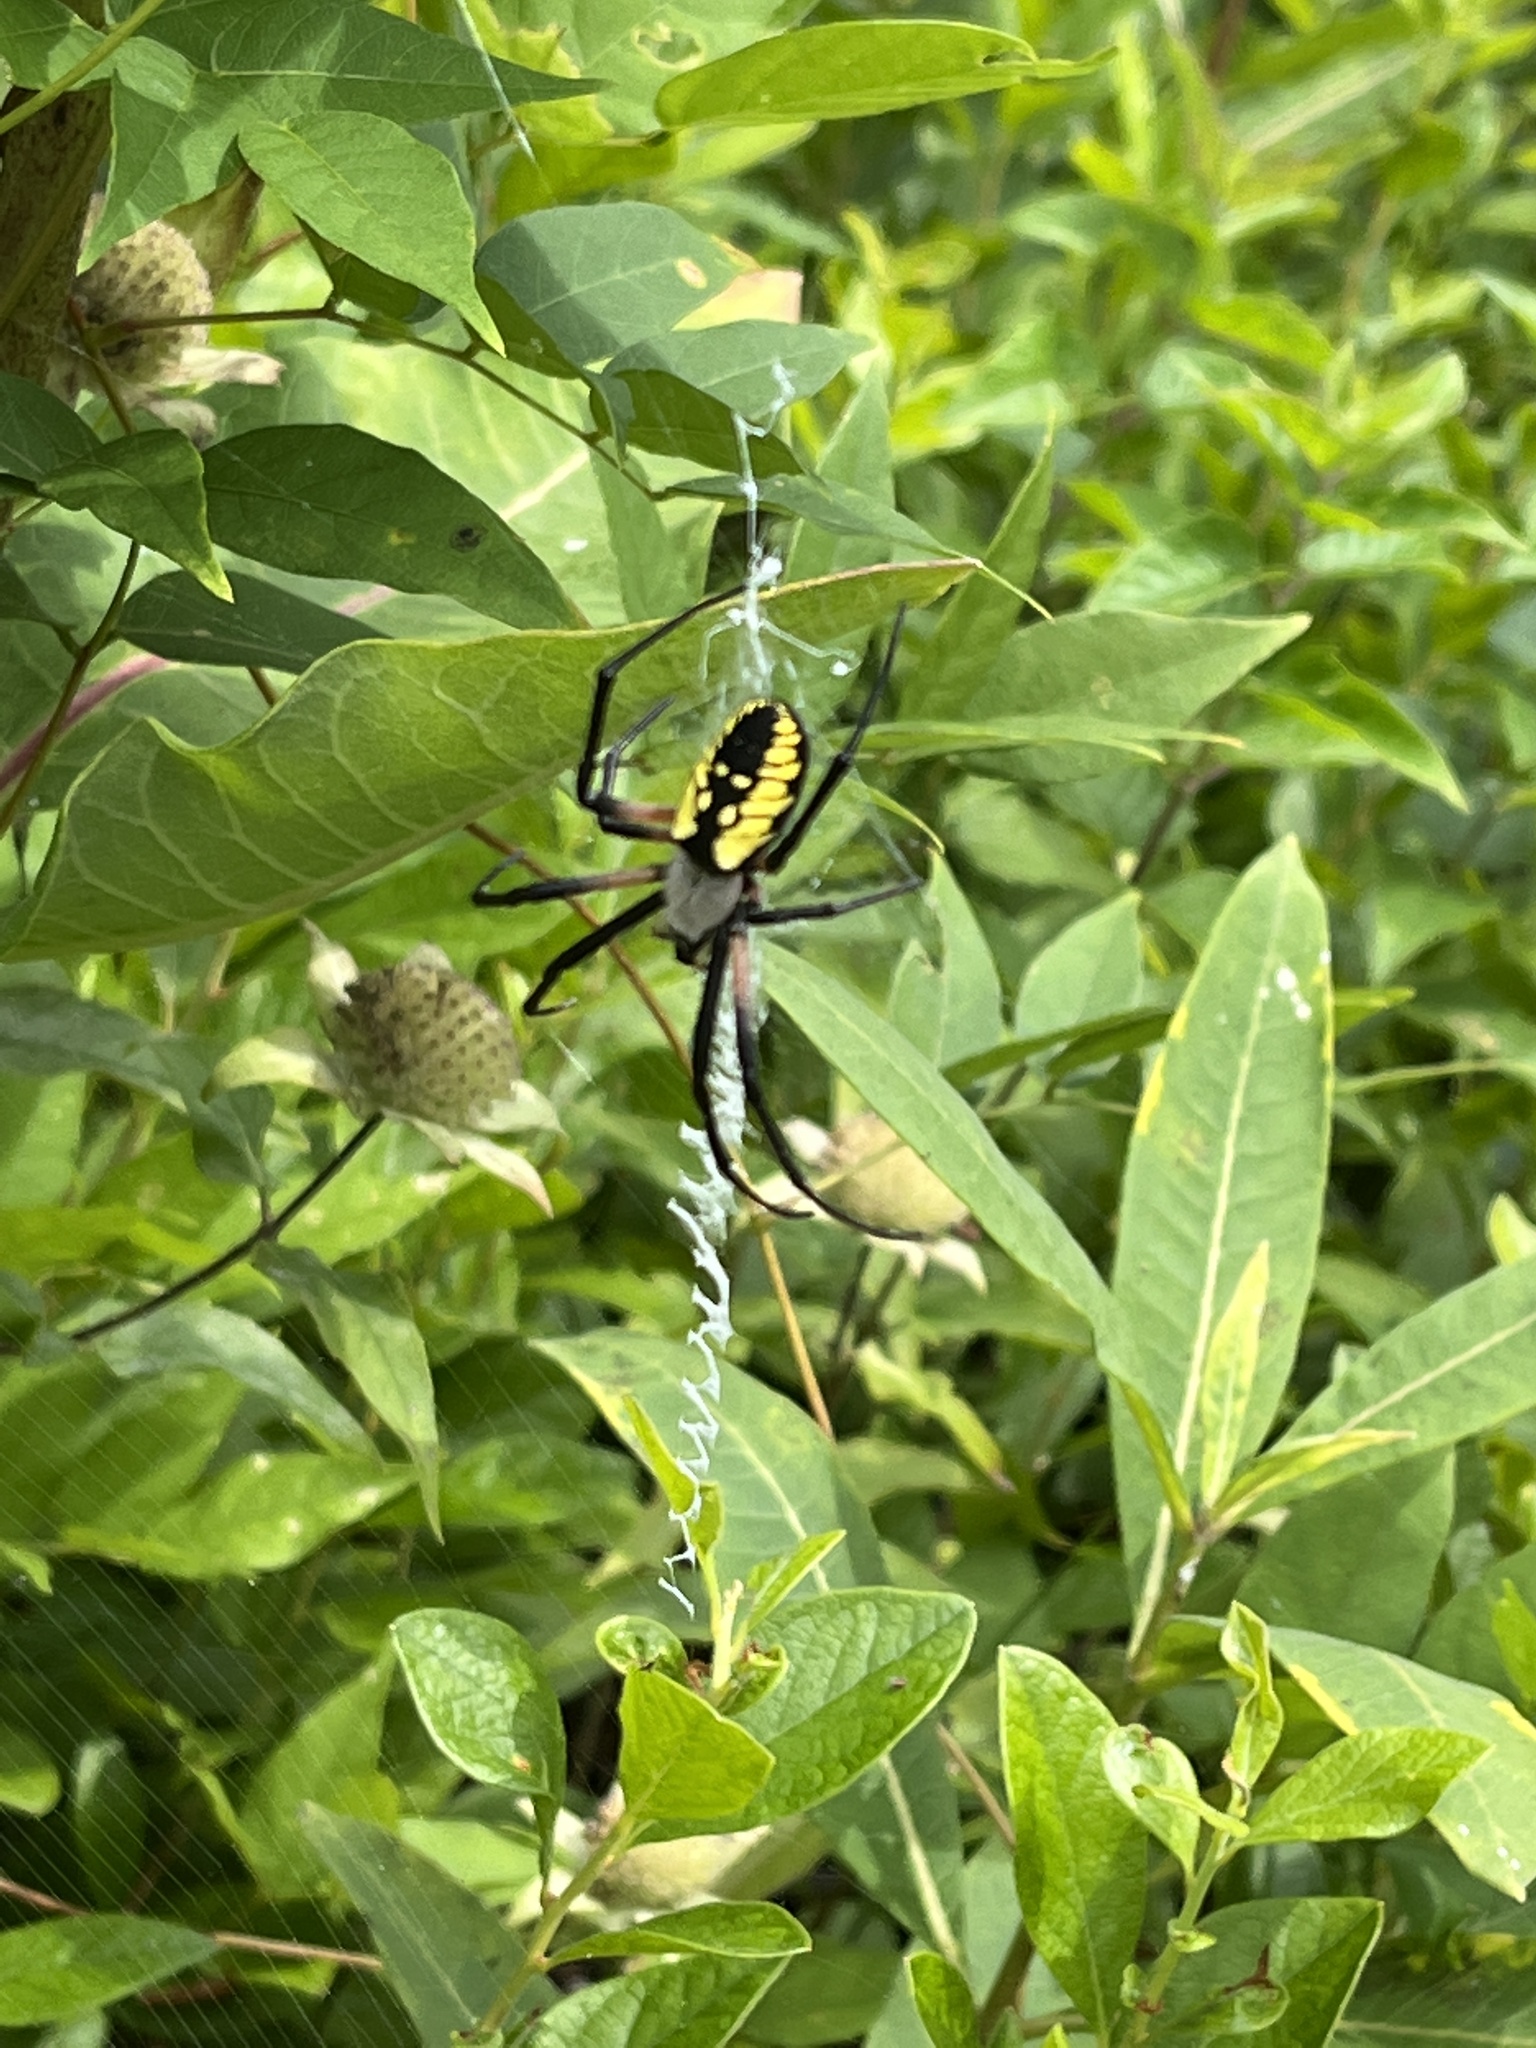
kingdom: Animalia
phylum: Arthropoda
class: Arachnida
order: Araneae
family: Araneidae
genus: Argiope
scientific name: Argiope aurantia
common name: Orb weavers
